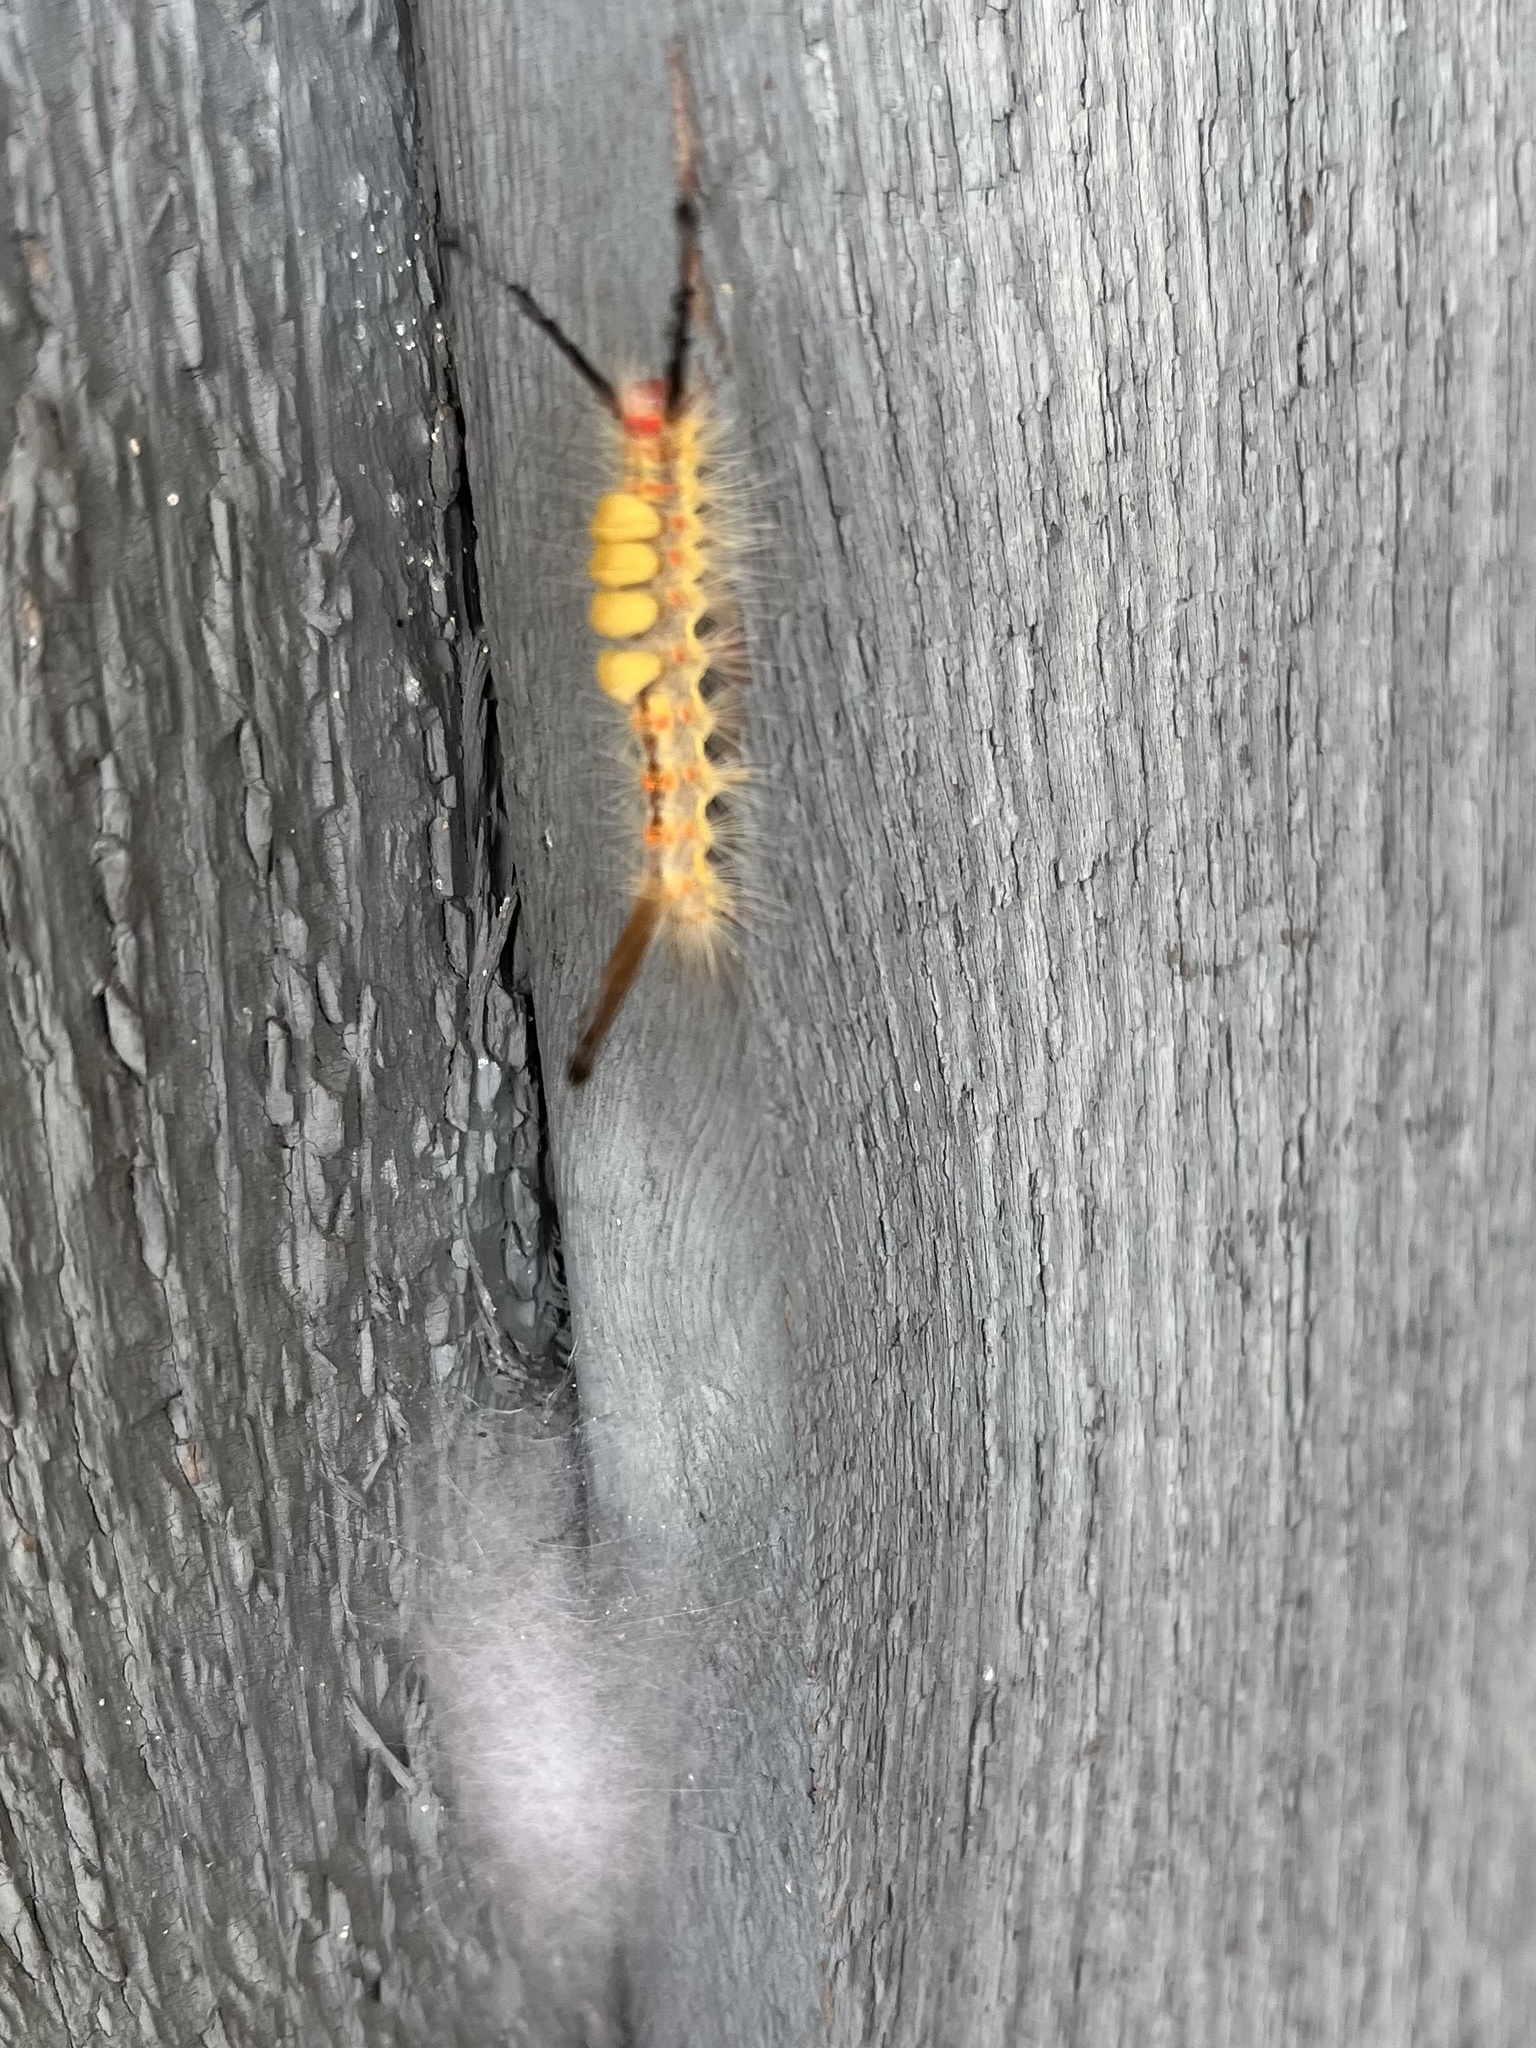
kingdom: Animalia
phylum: Arthropoda
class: Insecta
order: Lepidoptera
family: Erebidae
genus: Orgyia
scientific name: Orgyia detrita
